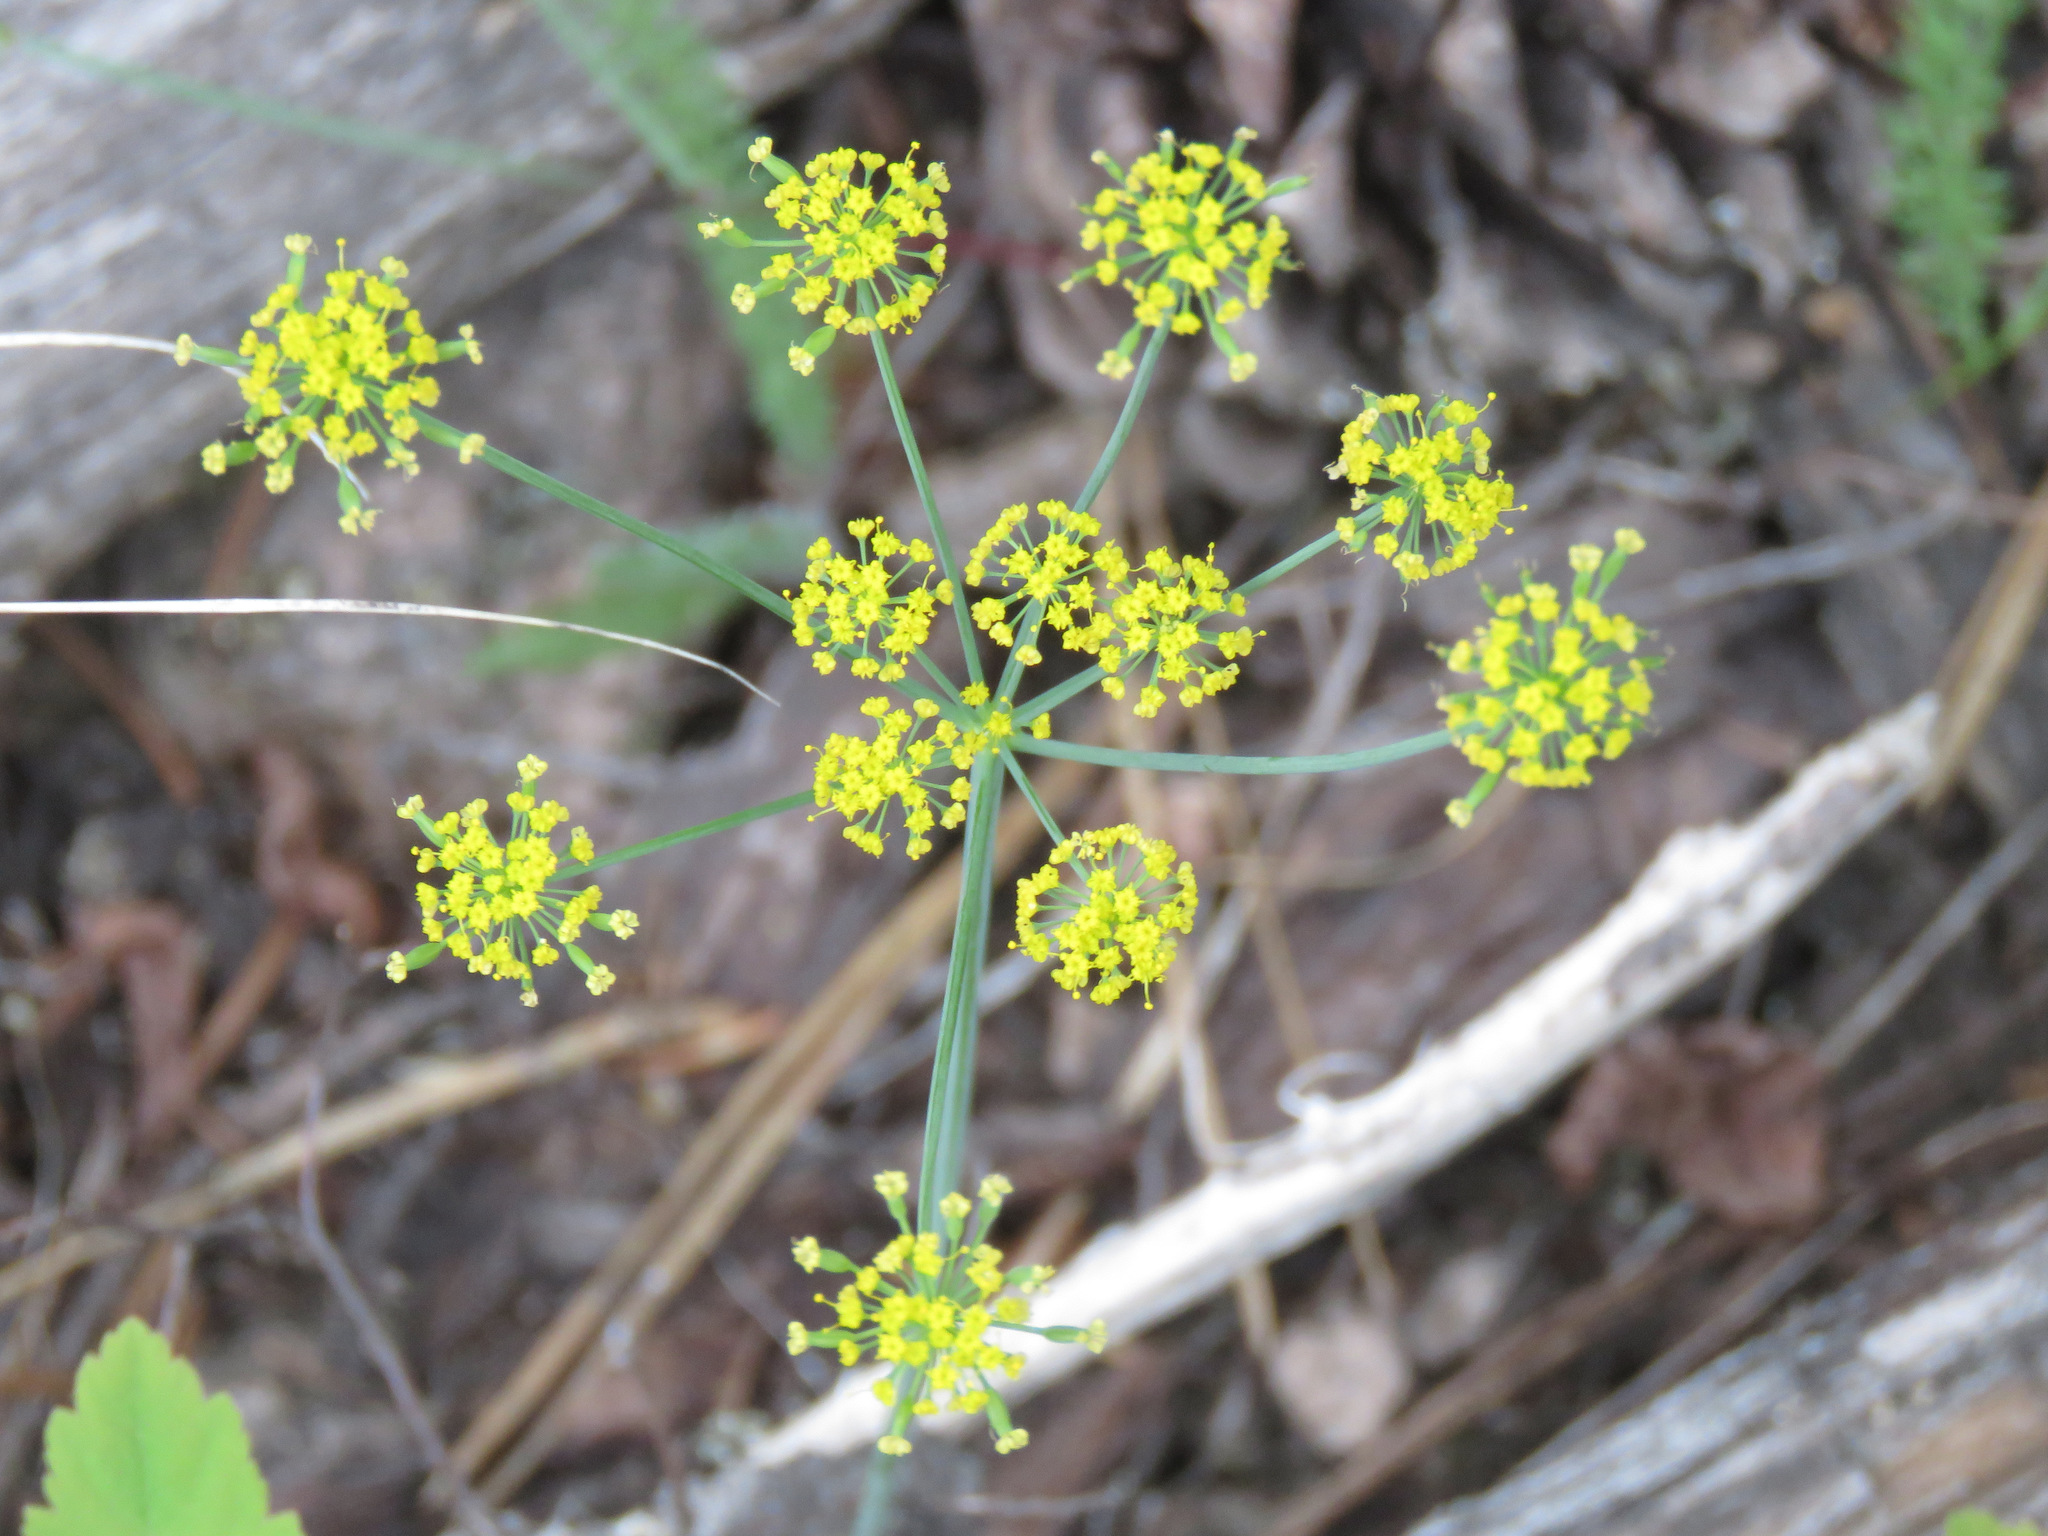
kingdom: Plantae
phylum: Tracheophyta
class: Magnoliopsida
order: Apiales
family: Apiaceae
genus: Lomatium
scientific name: Lomatium ambiguum
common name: Lacy lomatium
